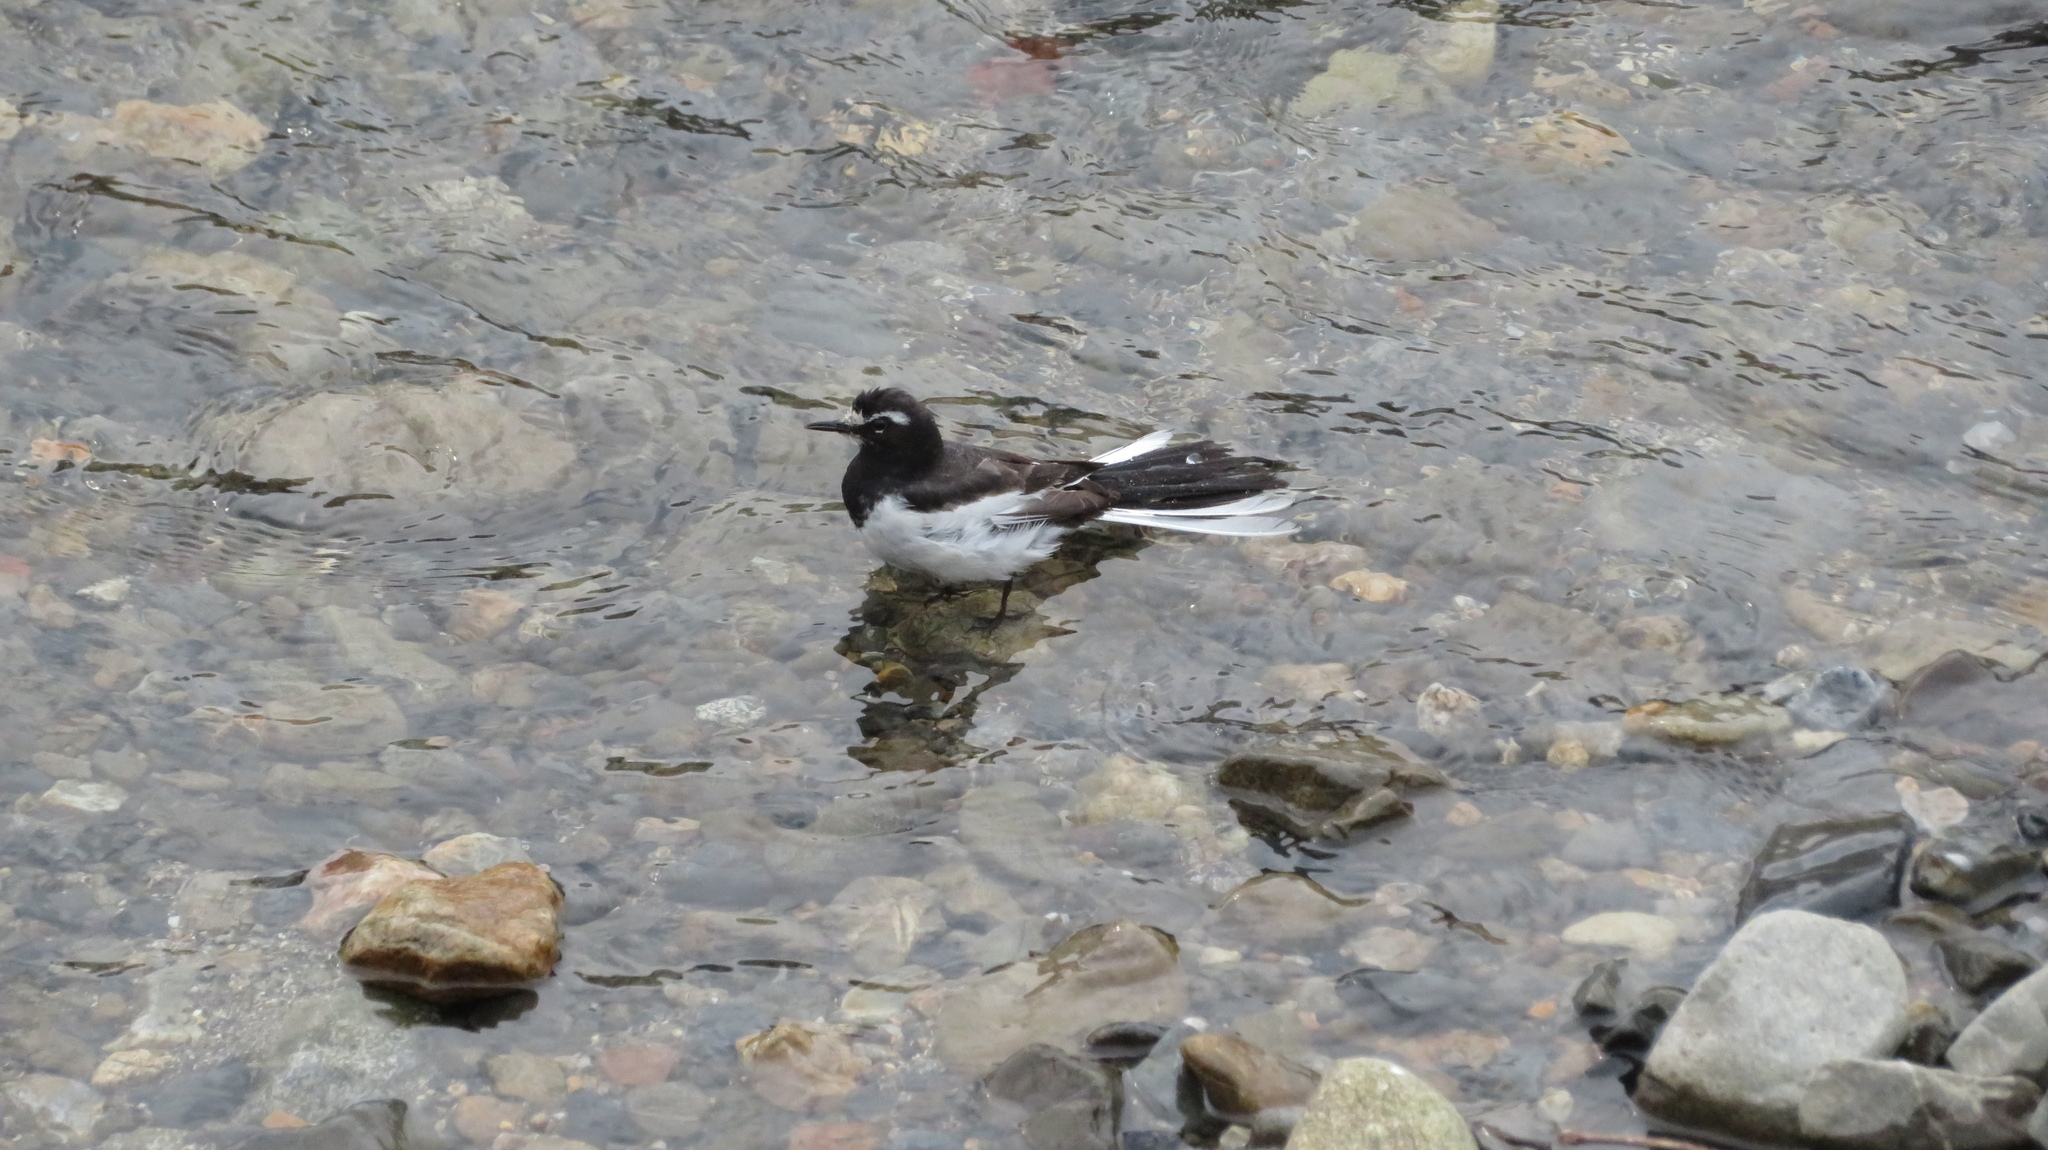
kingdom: Animalia
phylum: Chordata
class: Aves
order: Passeriformes
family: Motacillidae
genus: Motacilla
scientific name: Motacilla grandis
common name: Japanese wagtail
